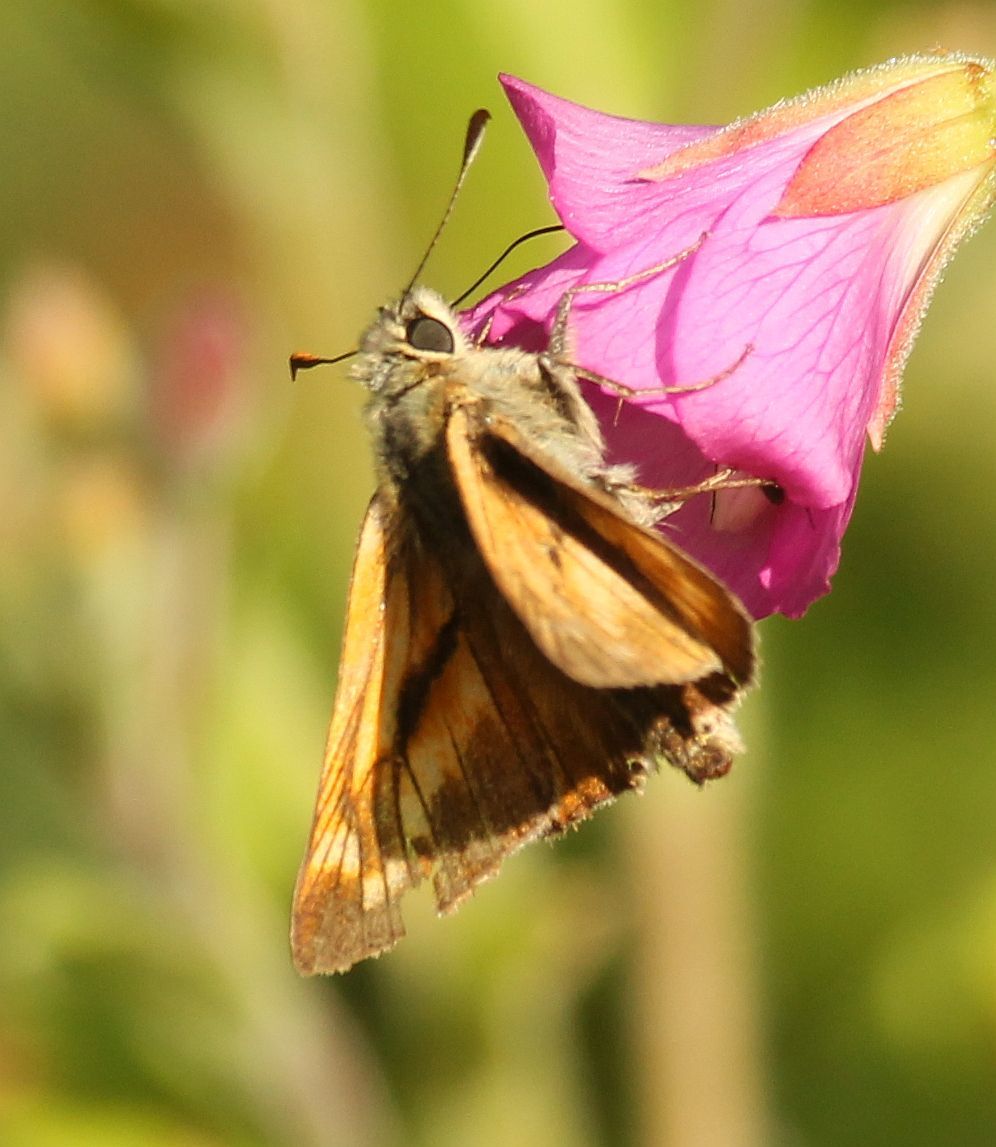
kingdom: Animalia
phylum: Arthropoda
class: Insecta
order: Lepidoptera
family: Hesperiidae
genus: Ochlodes
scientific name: Ochlodes venata
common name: Large skipper
